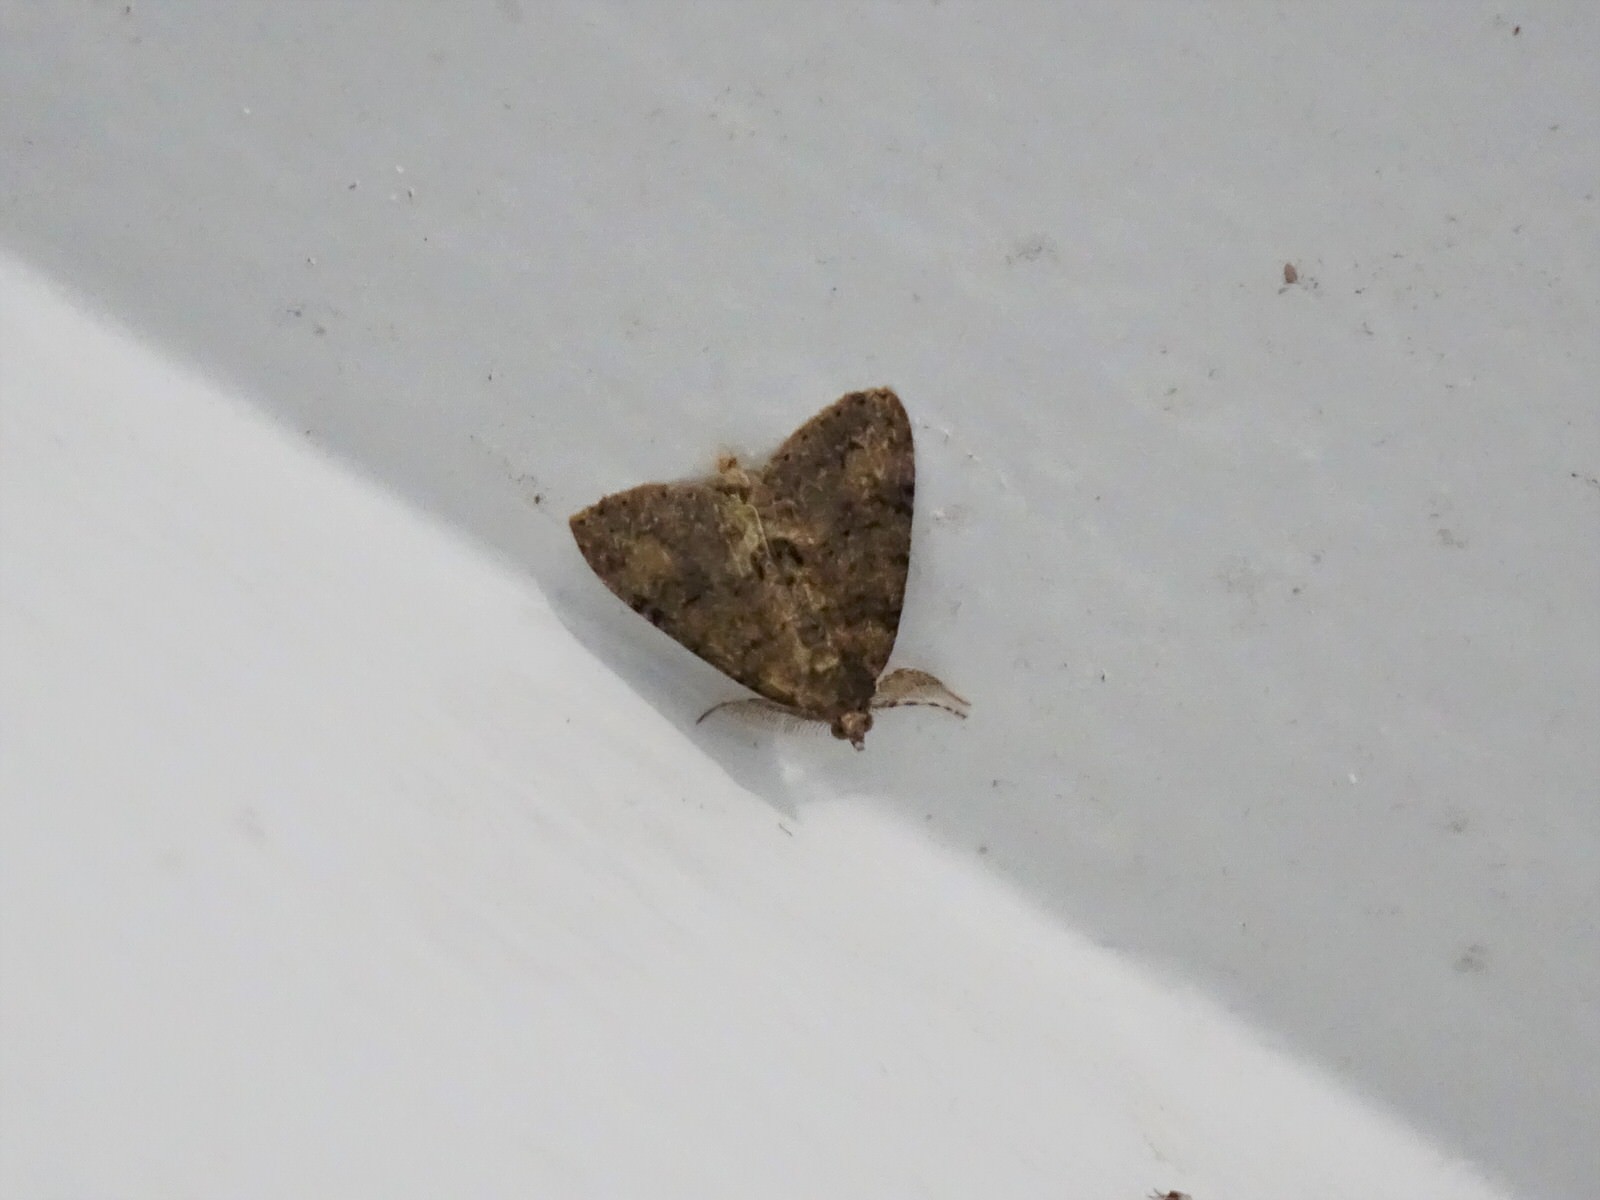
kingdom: Animalia
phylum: Arthropoda
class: Insecta
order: Lepidoptera
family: Geometridae
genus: Pseudocoremia
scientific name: Pseudocoremia suavis
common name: Common forest looper
